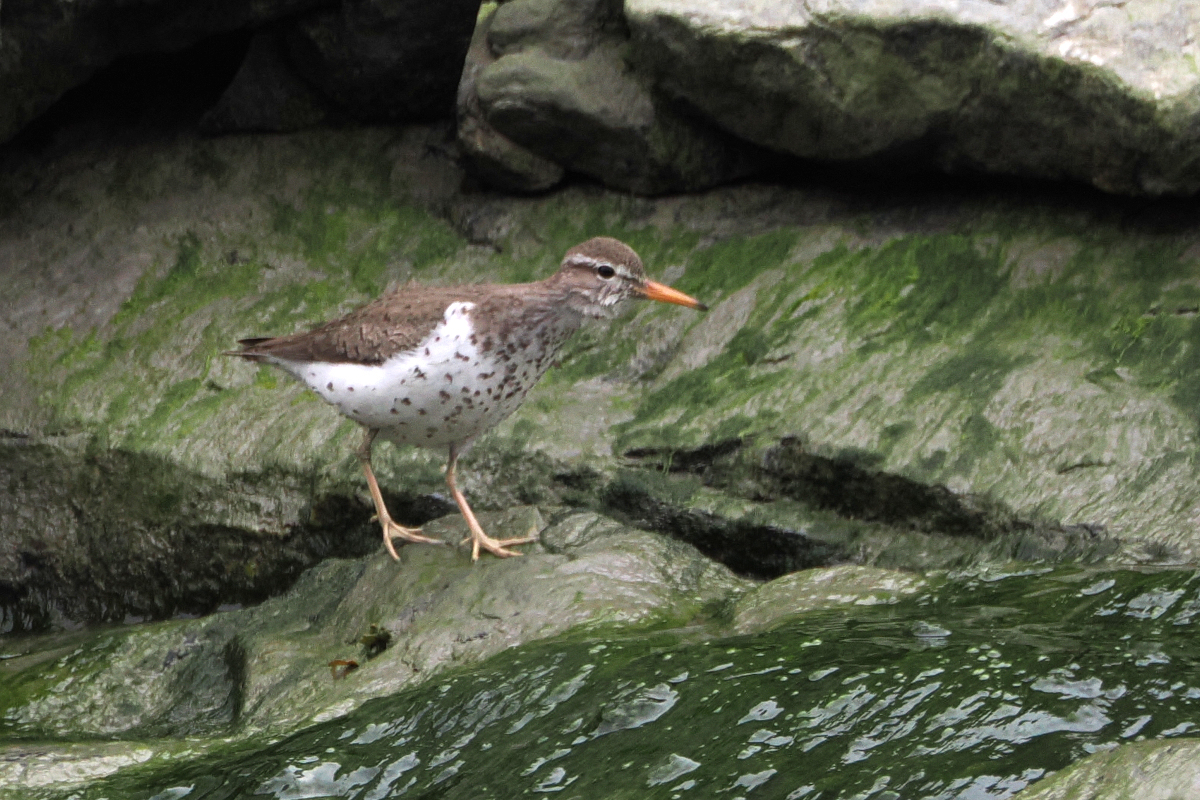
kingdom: Animalia
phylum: Chordata
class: Aves
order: Charadriiformes
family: Scolopacidae
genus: Actitis
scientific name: Actitis macularius
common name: Spotted sandpiper
